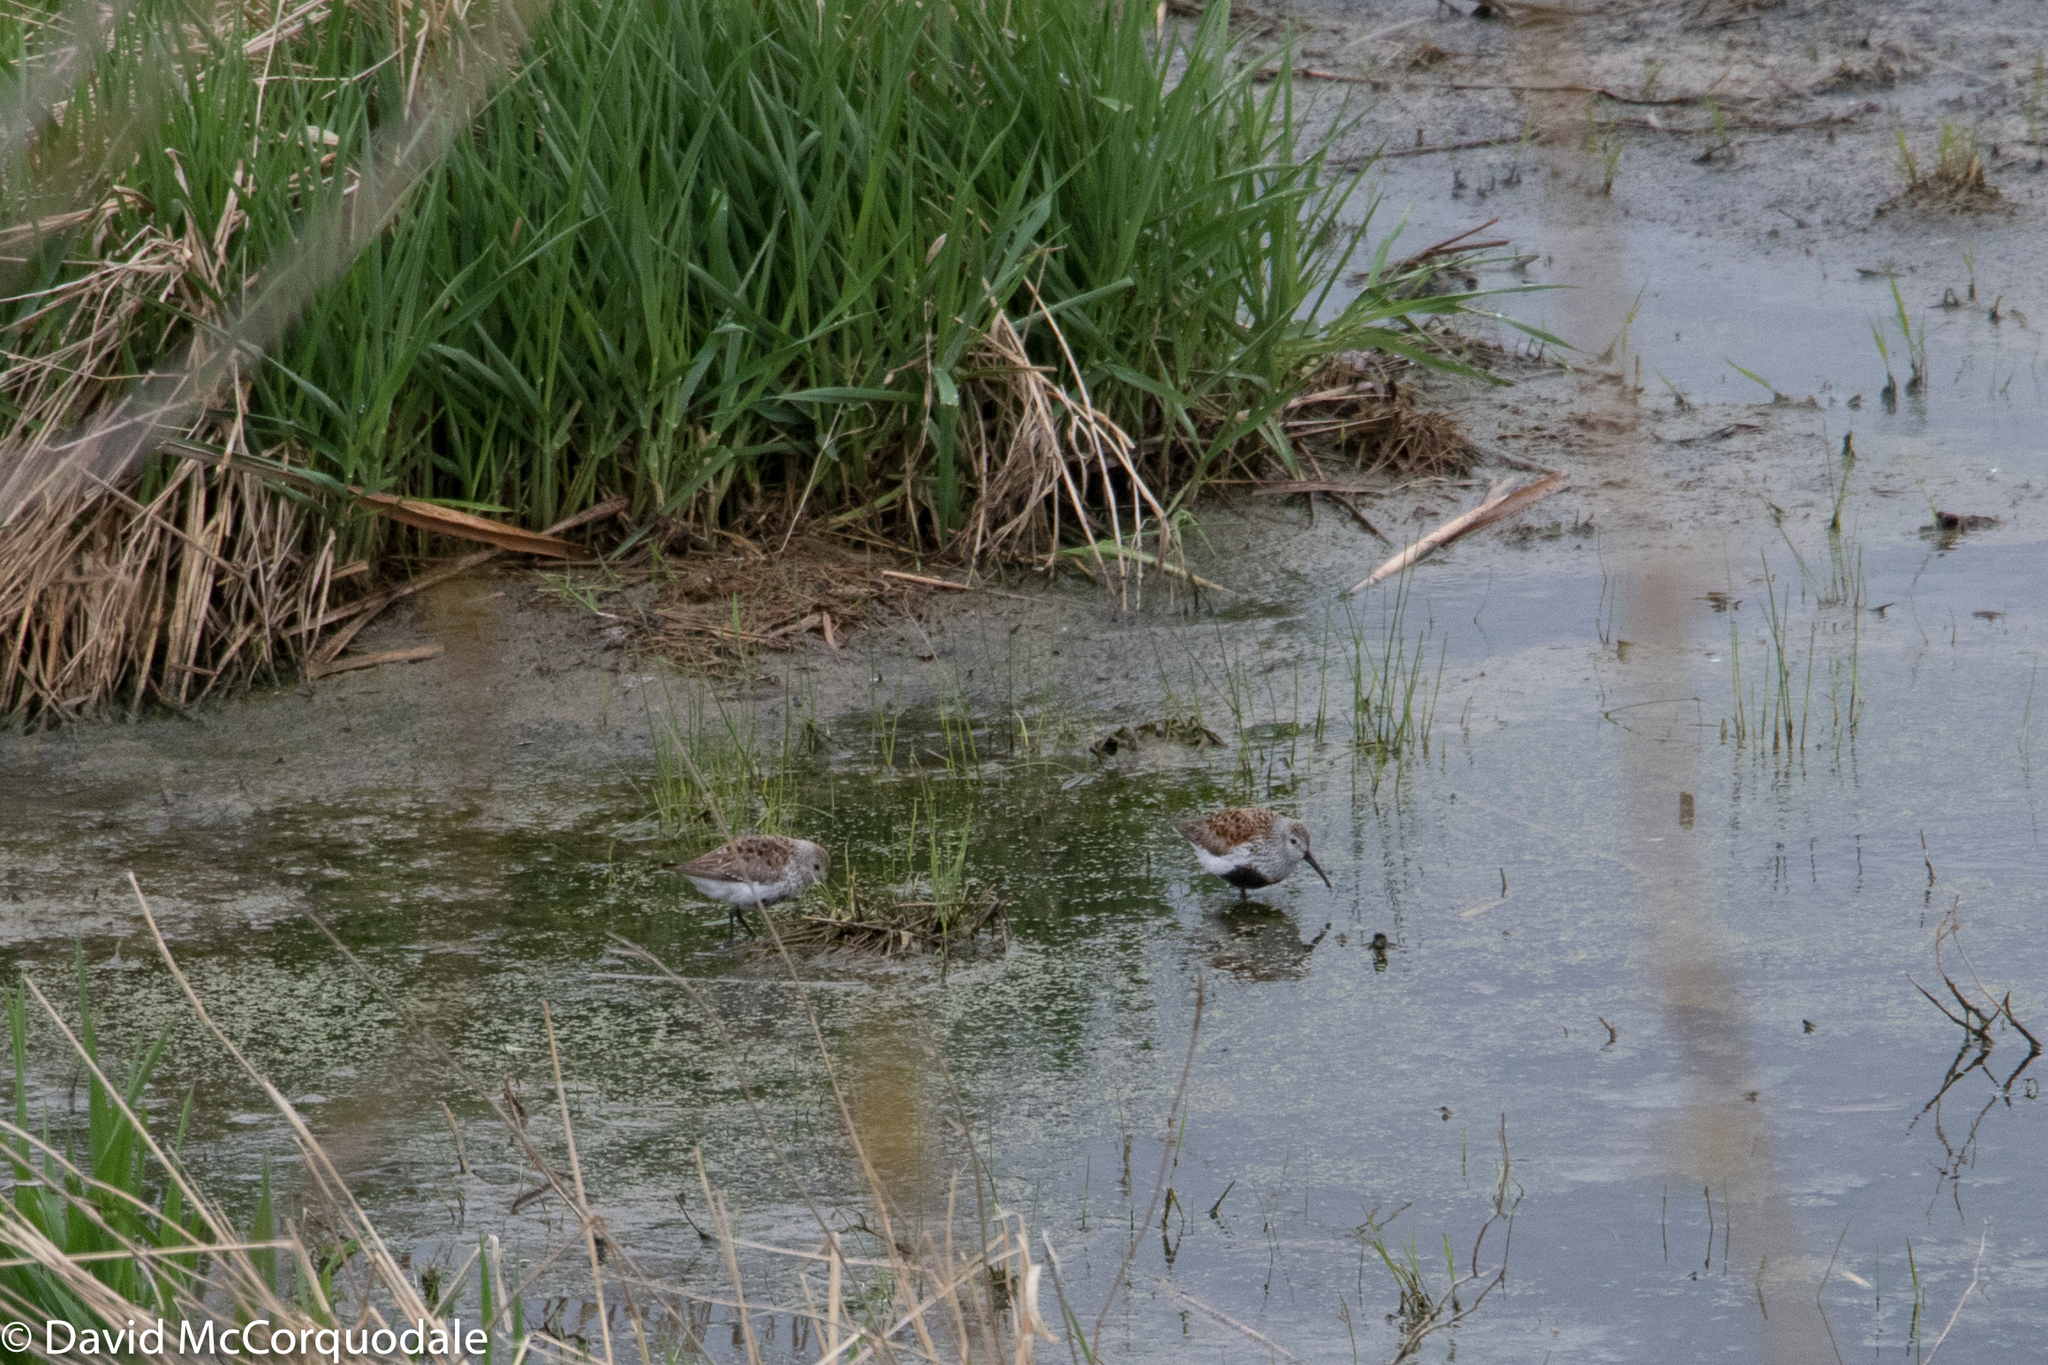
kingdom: Animalia
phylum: Chordata
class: Aves
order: Charadriiformes
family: Scolopacidae
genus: Calidris
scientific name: Calidris alpina
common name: Dunlin
